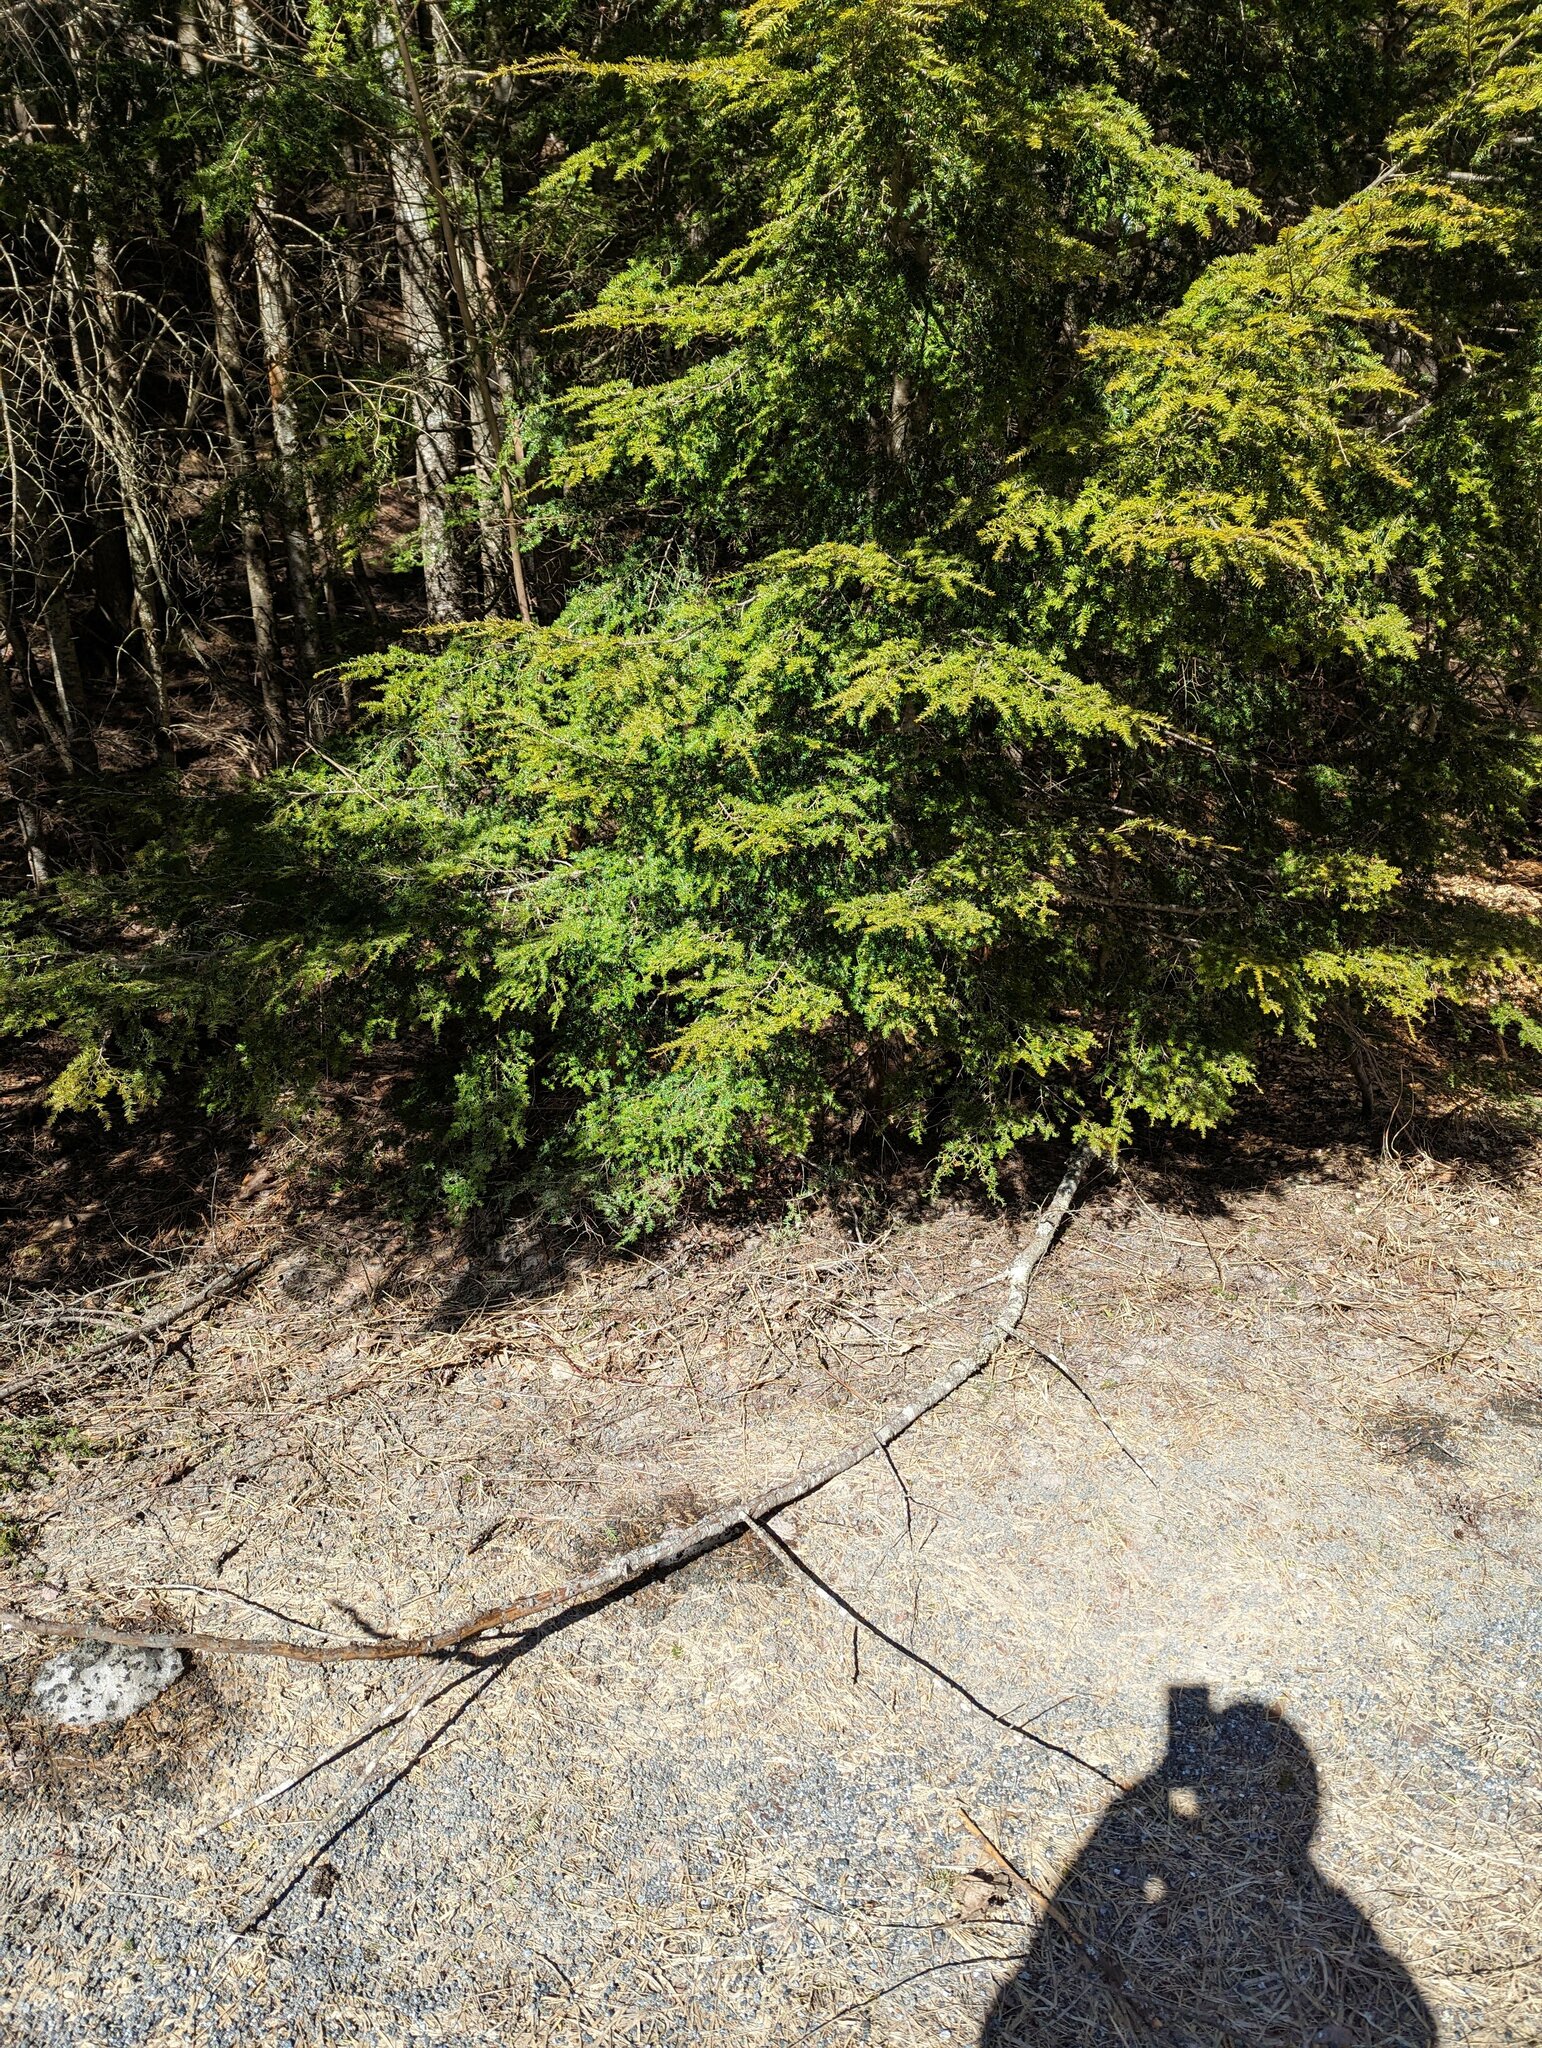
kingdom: Plantae
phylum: Tracheophyta
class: Pinopsida
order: Pinales
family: Pinaceae
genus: Tsuga
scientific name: Tsuga canadensis
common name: Eastern hemlock
